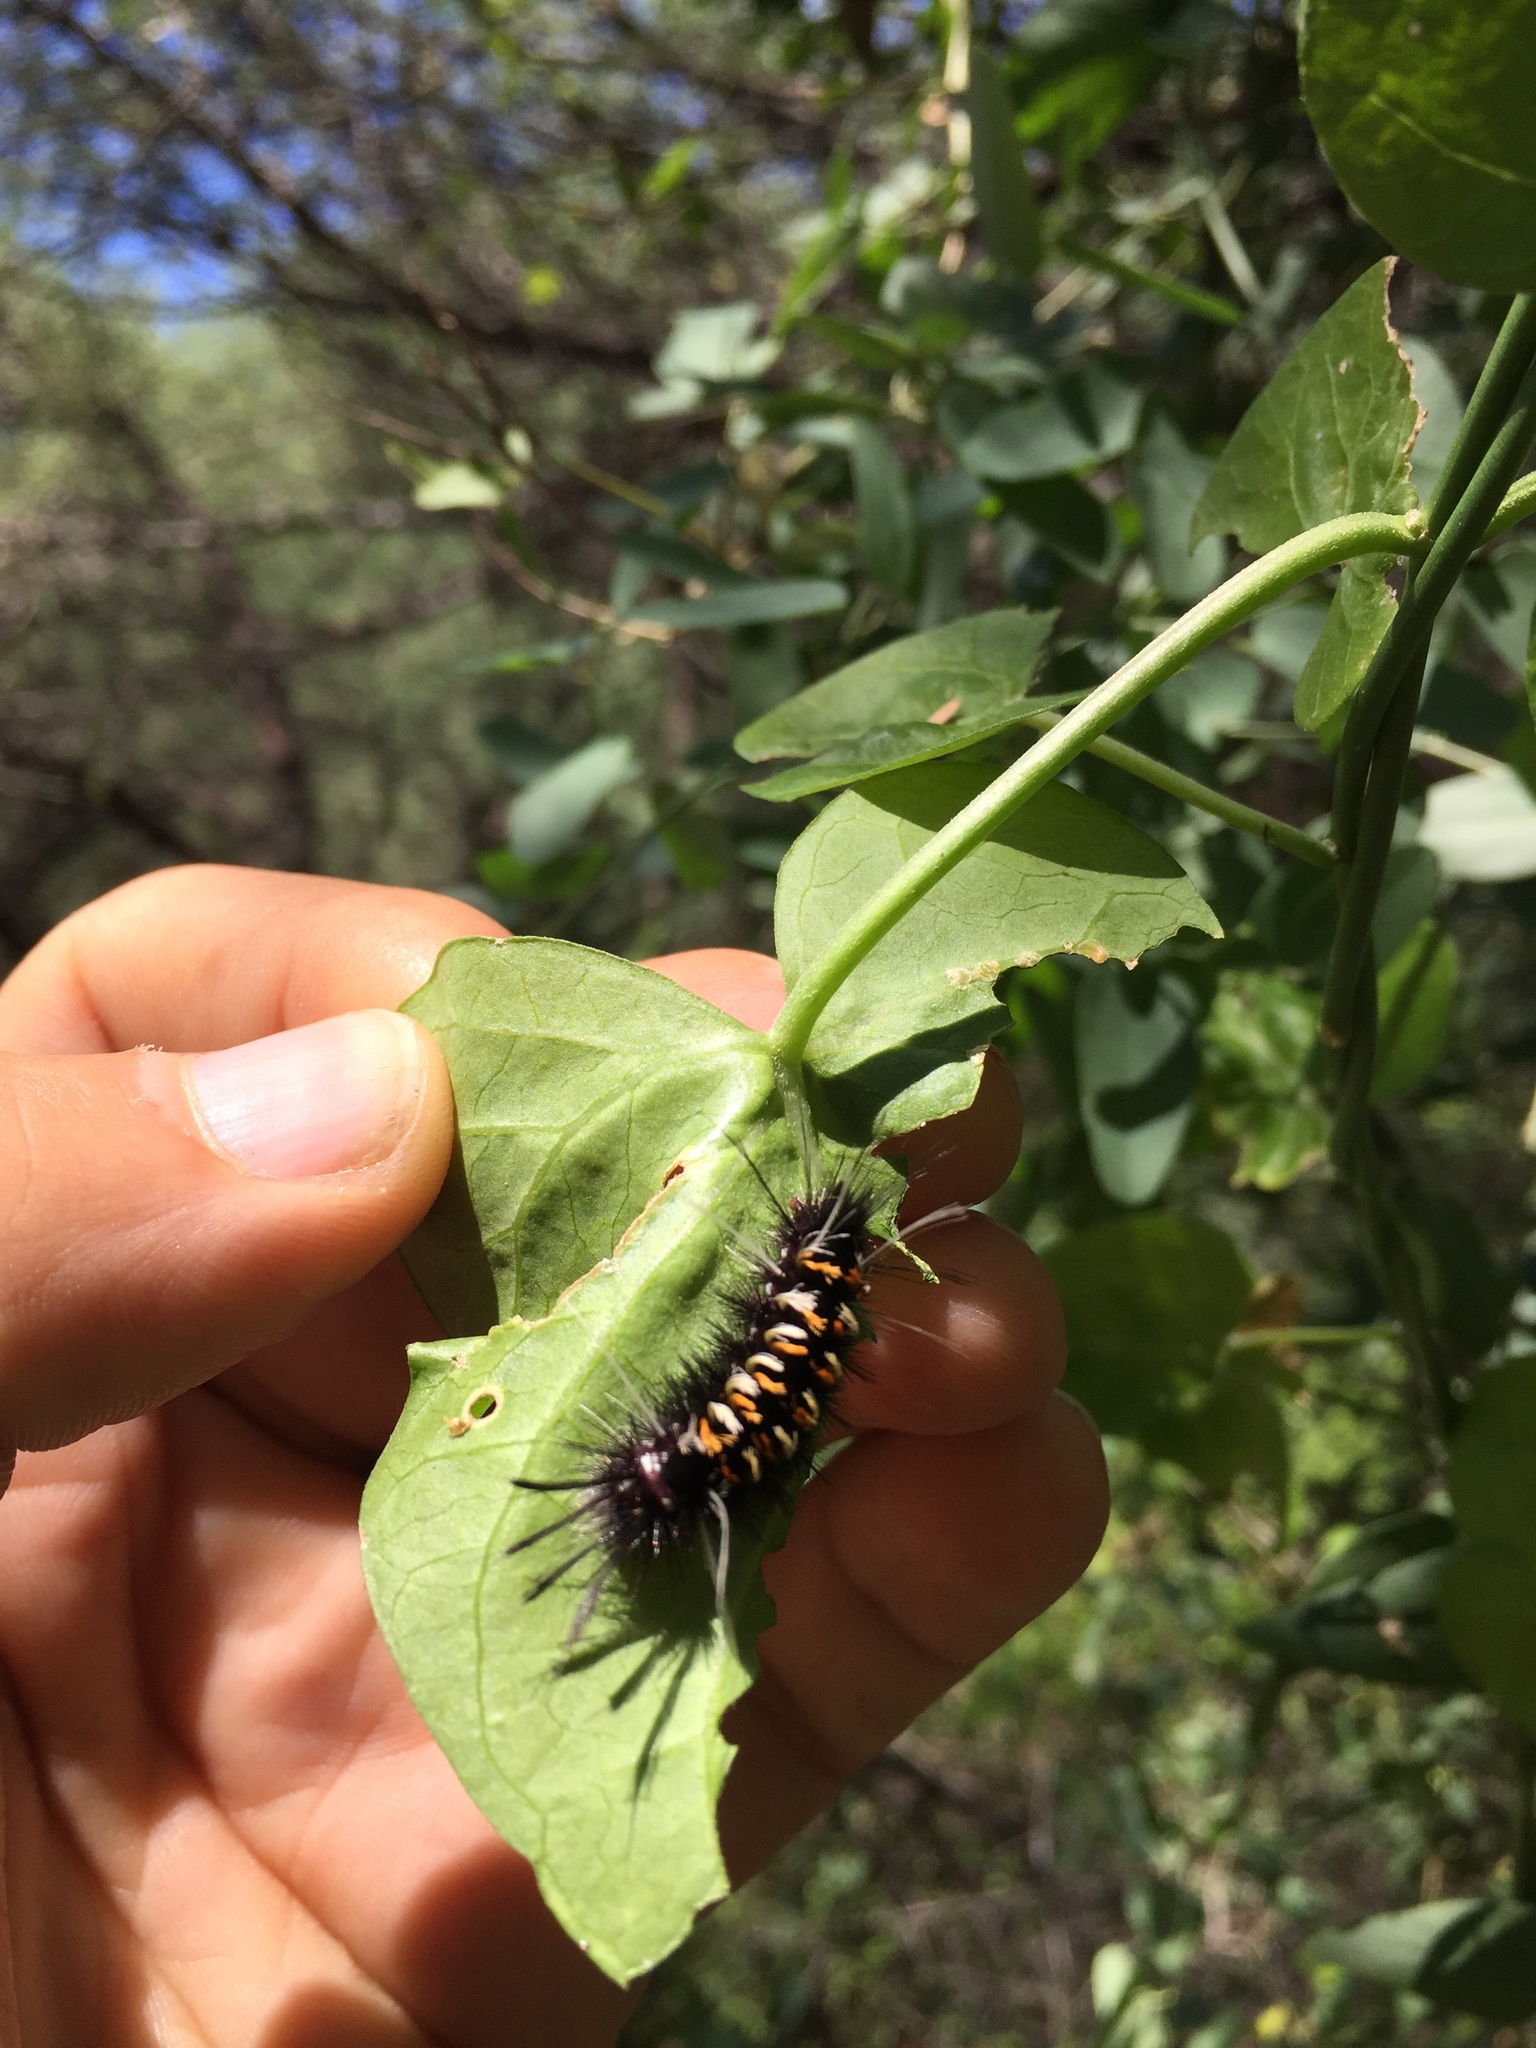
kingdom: Animalia
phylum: Arthropoda
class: Insecta
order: Lepidoptera
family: Erebidae
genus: Euchaetes
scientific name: Euchaetes
